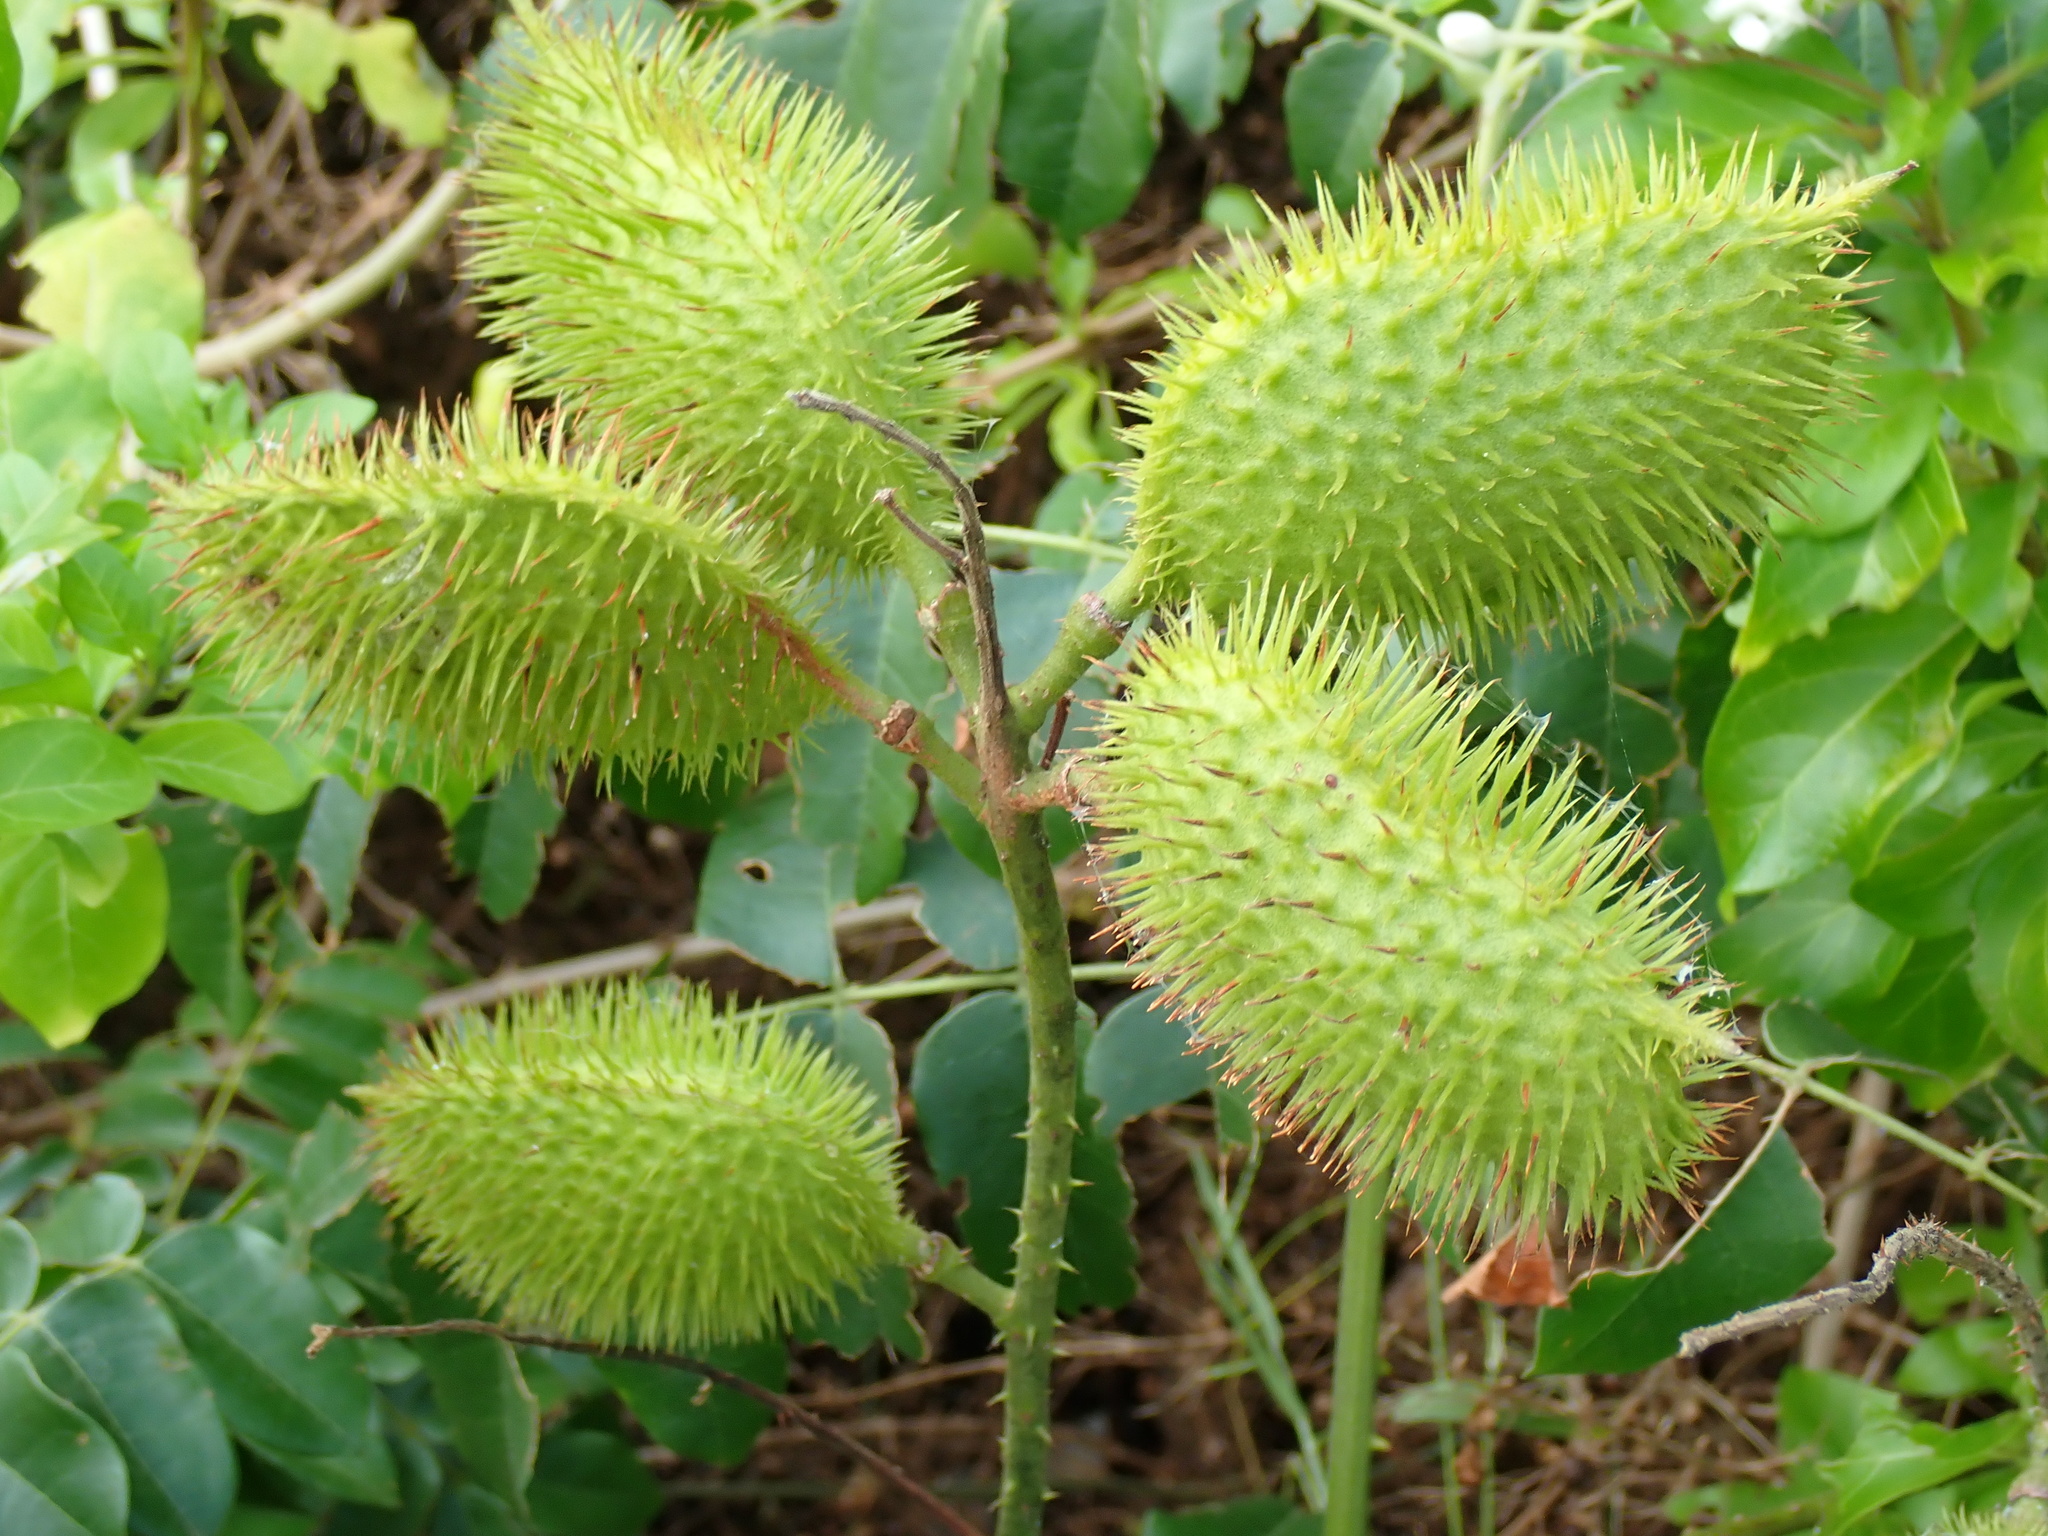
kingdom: Plantae
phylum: Tracheophyta
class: Magnoliopsida
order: Fabales
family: Fabaceae
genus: Guilandina
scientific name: Guilandina bonduc
